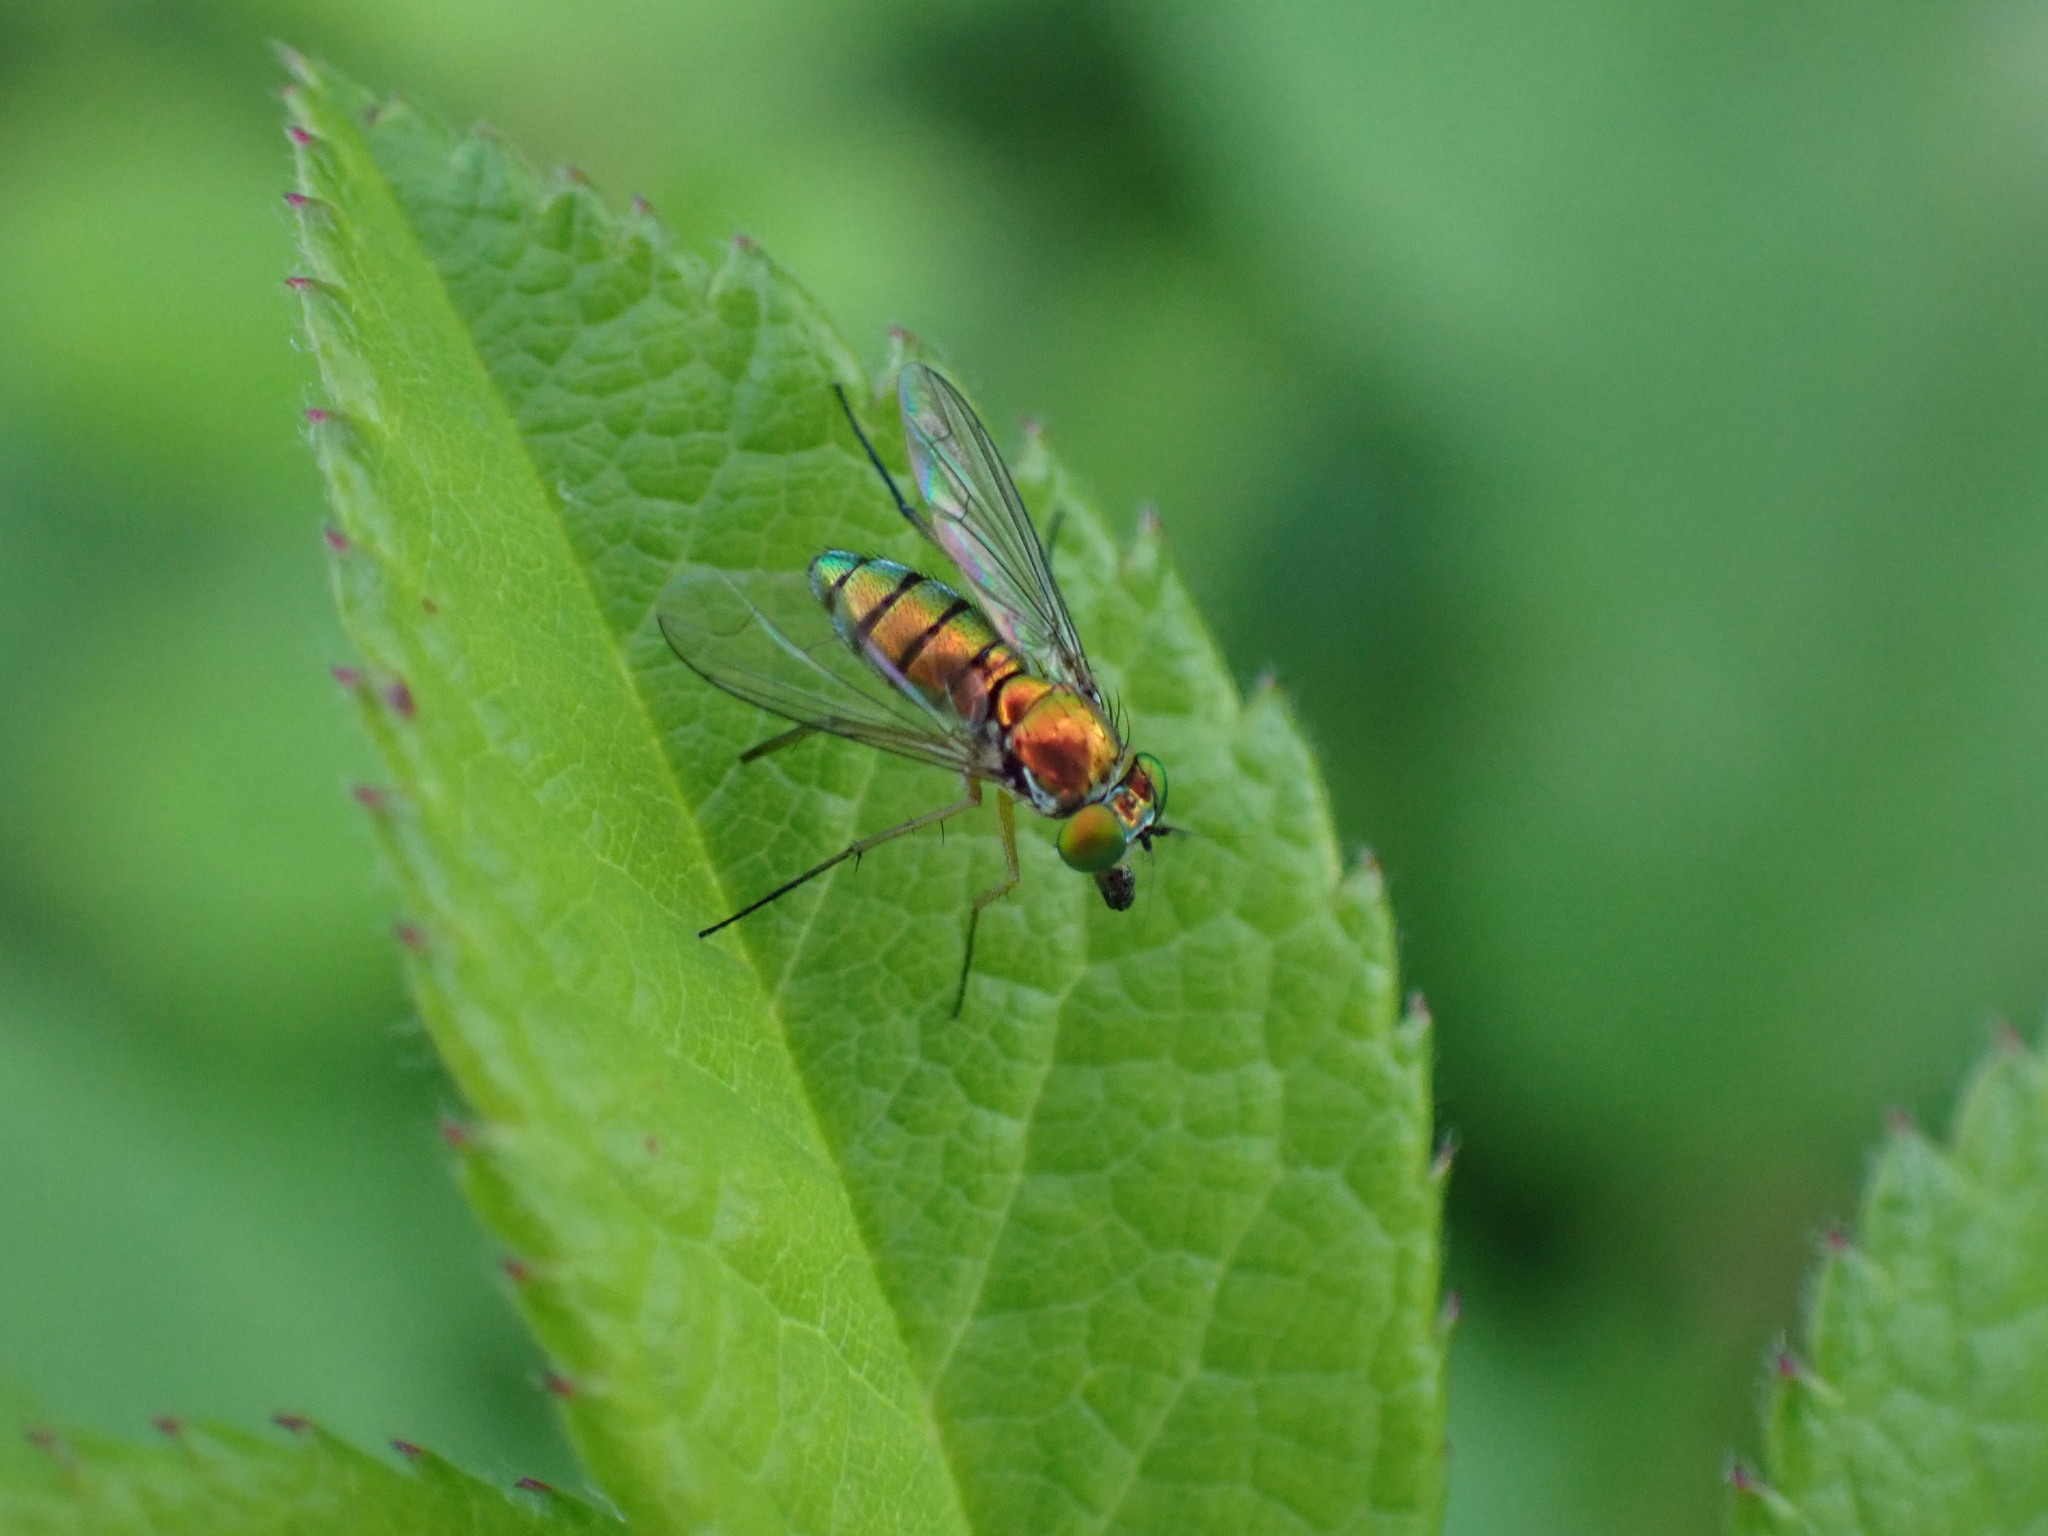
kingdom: Animalia
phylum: Arthropoda
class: Insecta
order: Diptera
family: Dolichopodidae
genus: Condylostylus
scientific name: Condylostylus
